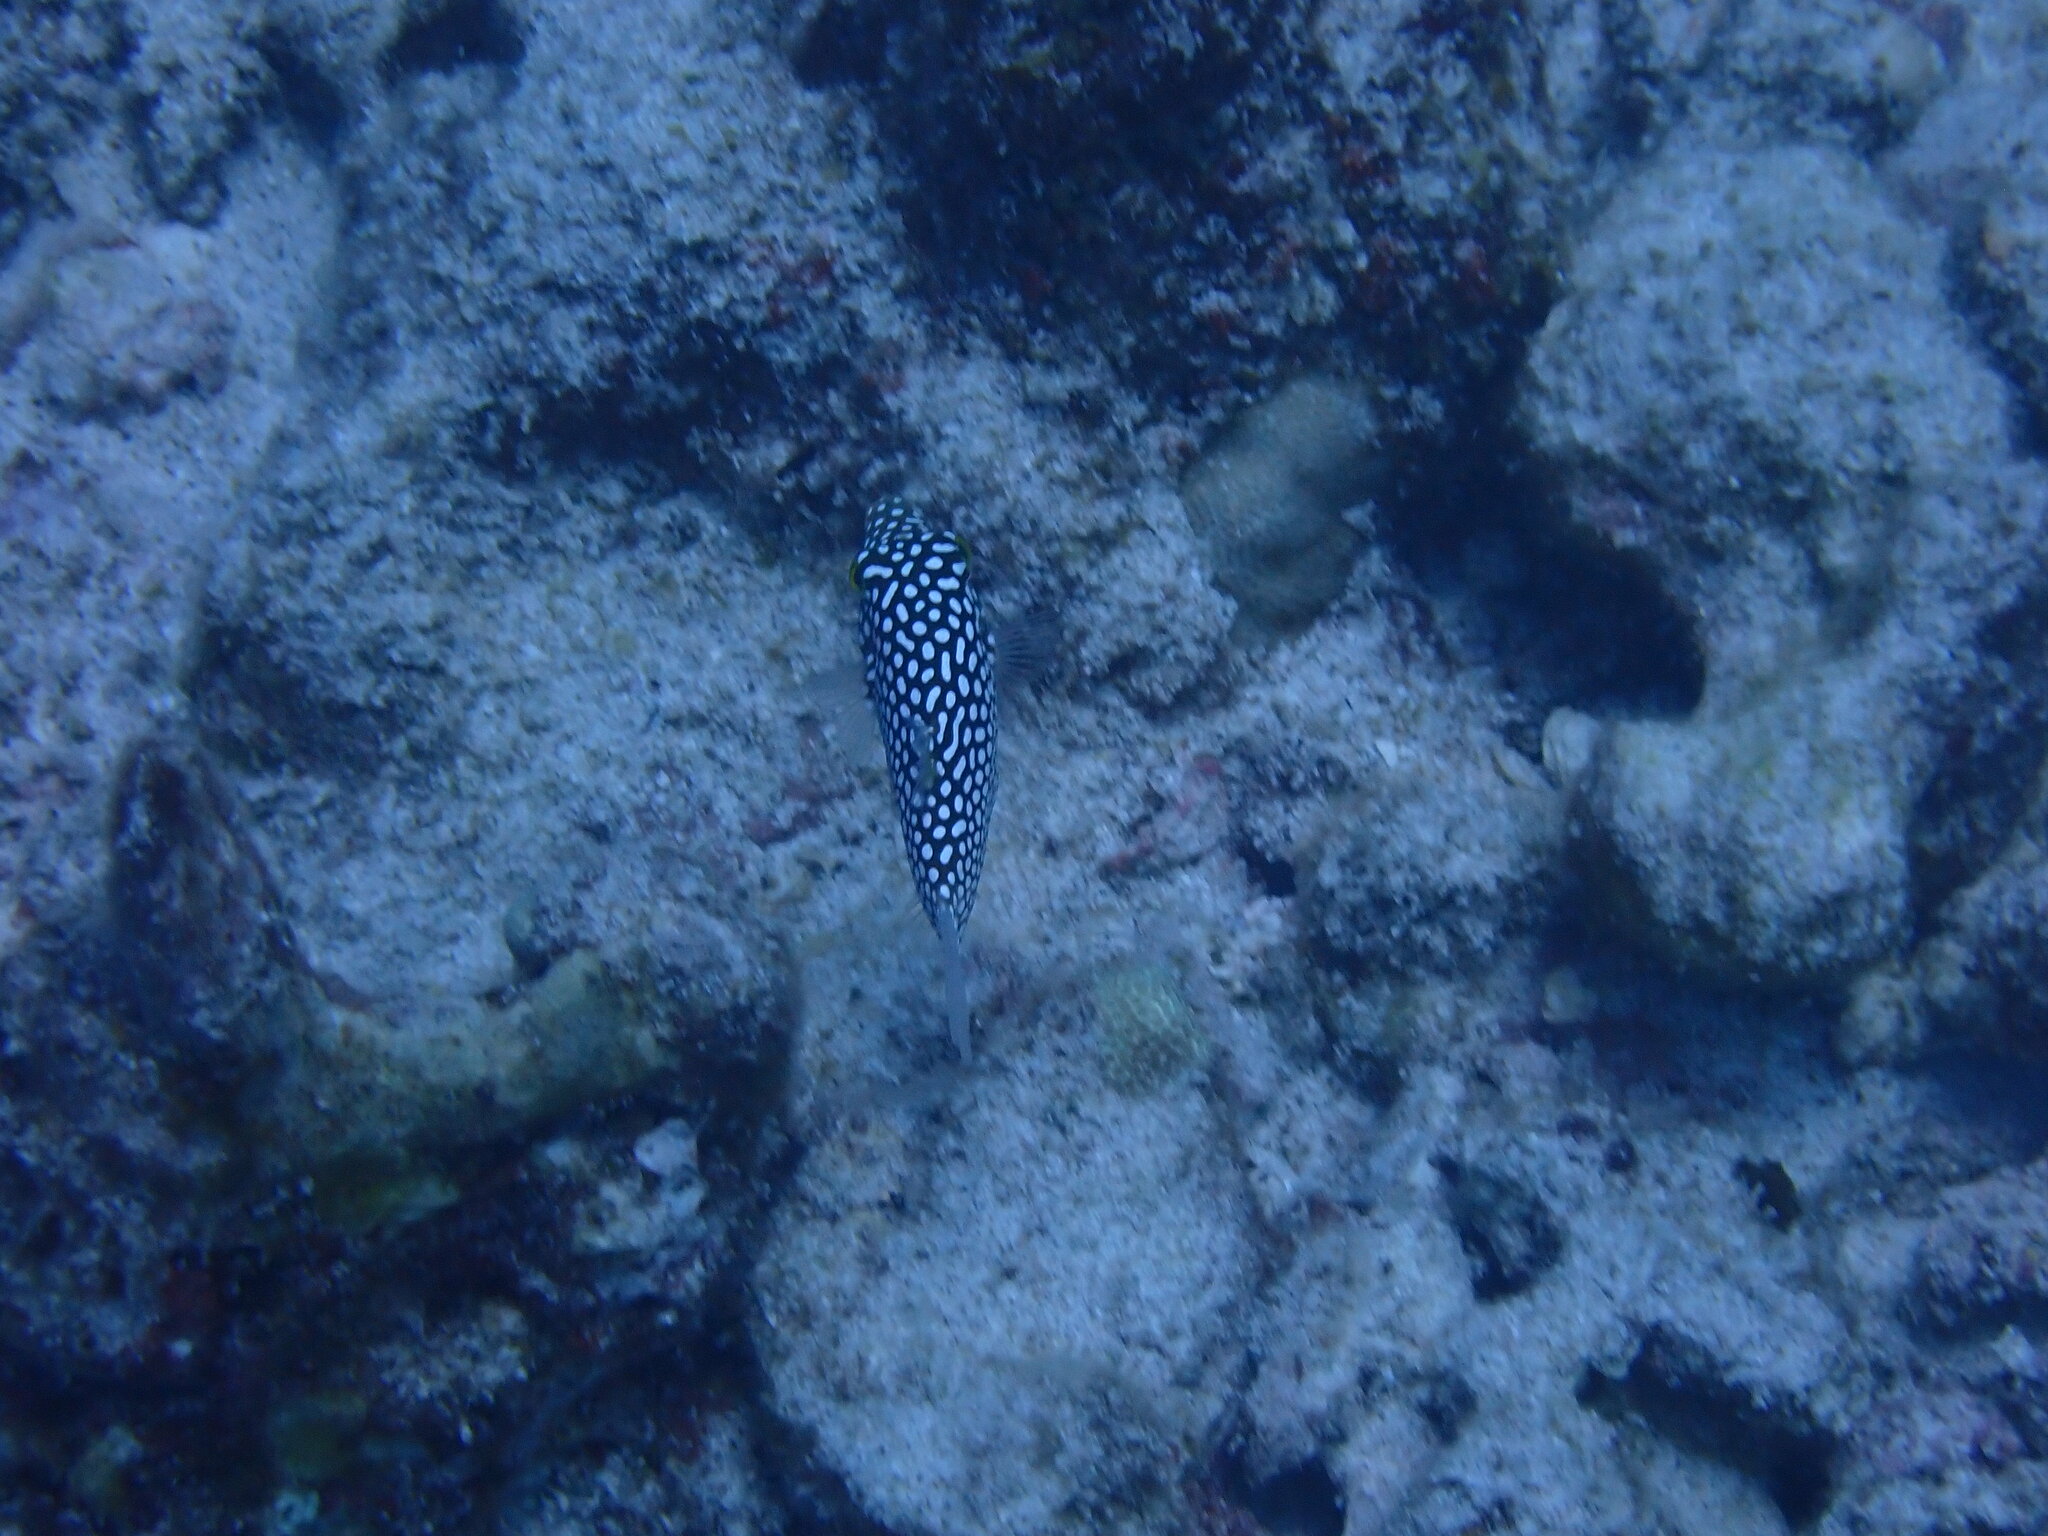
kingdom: Animalia
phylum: Chordata
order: Tetraodontiformes
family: Tetraodontidae
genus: Canthigaster
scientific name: Canthigaster jactator
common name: Hawaiian whitespotted toby
